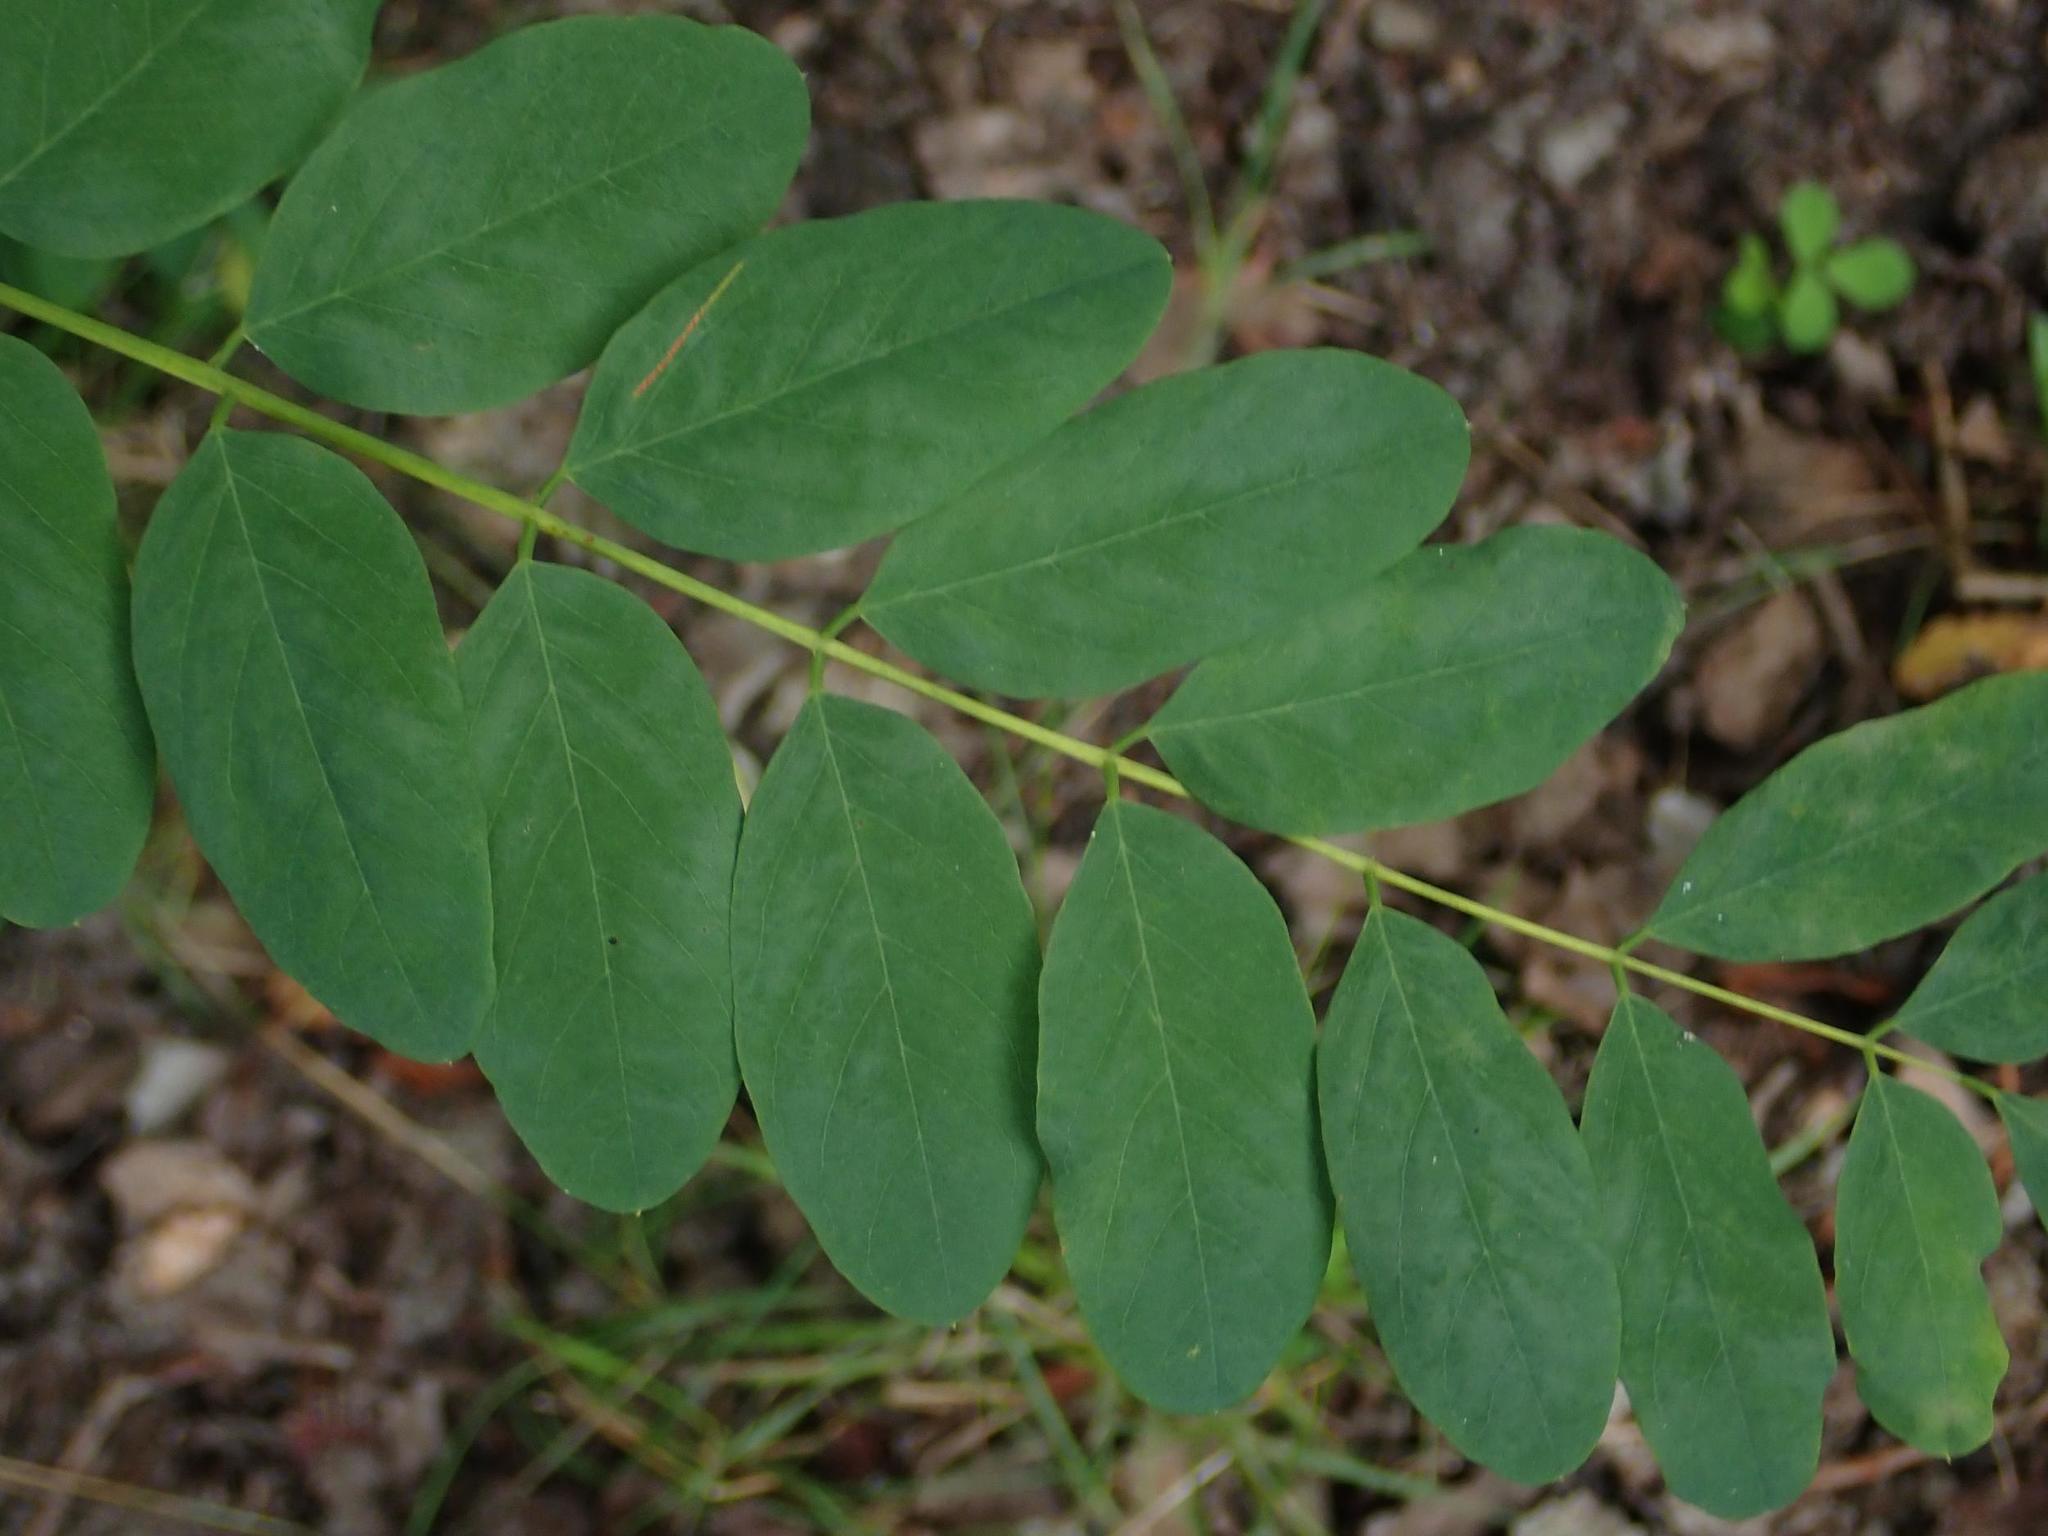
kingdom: Plantae
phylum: Tracheophyta
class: Magnoliopsida
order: Fabales
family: Fabaceae
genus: Robinia
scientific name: Robinia pseudoacacia
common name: Black locust
